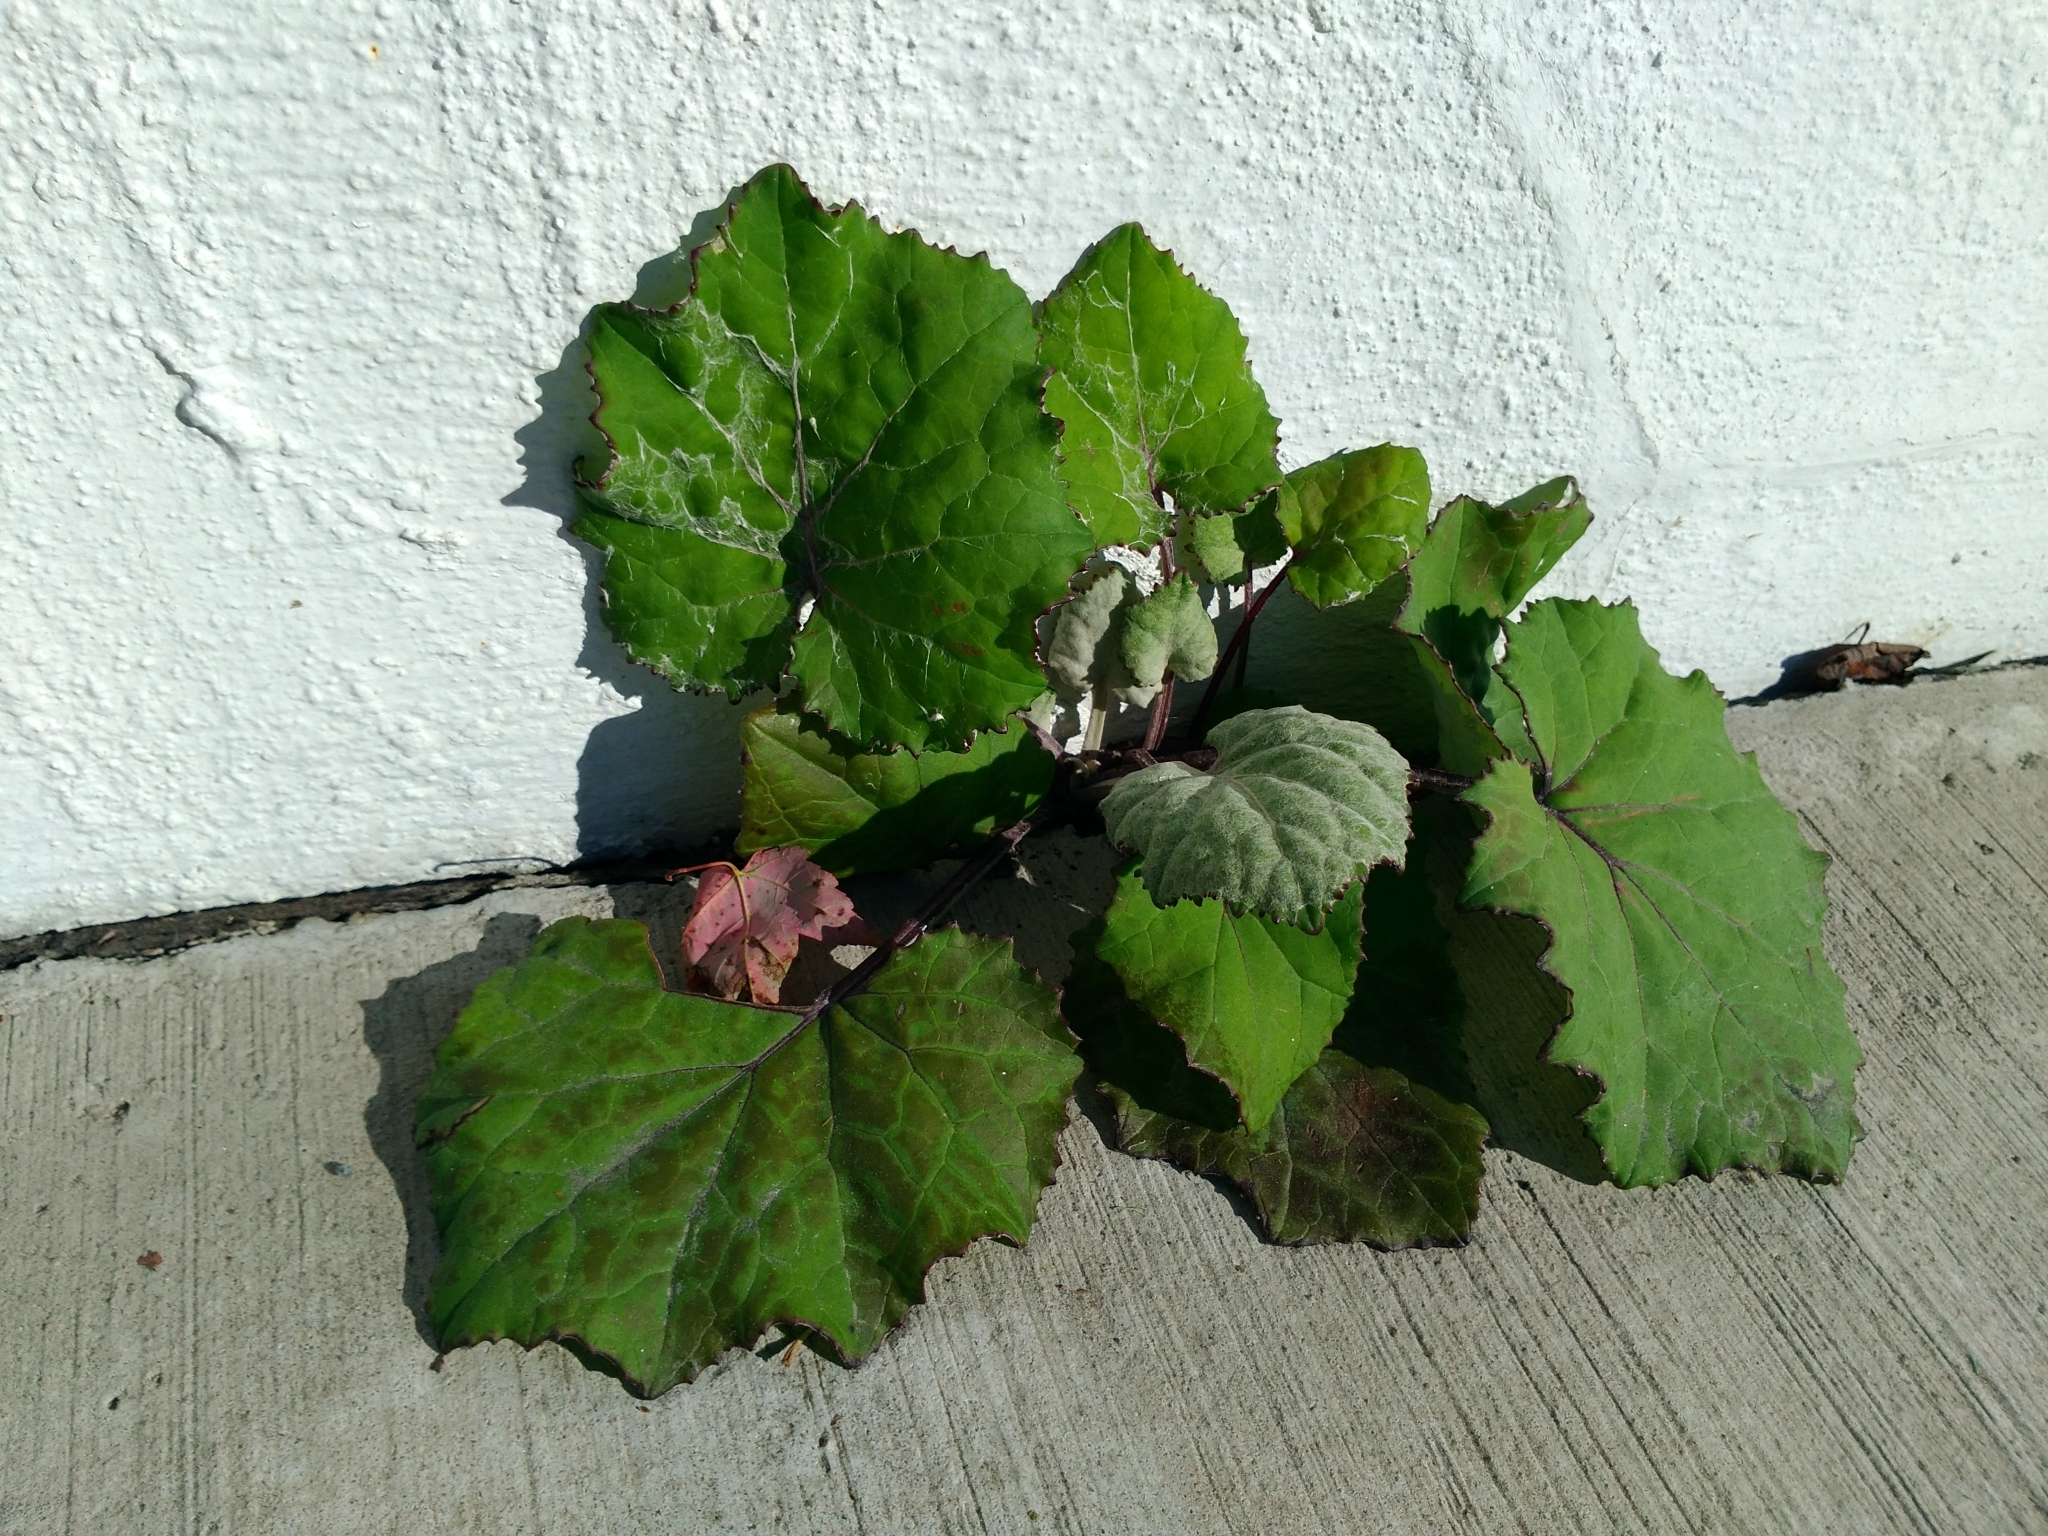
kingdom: Plantae
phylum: Tracheophyta
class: Magnoliopsida
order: Asterales
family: Asteraceae
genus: Tussilago
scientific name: Tussilago farfara
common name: Coltsfoot
